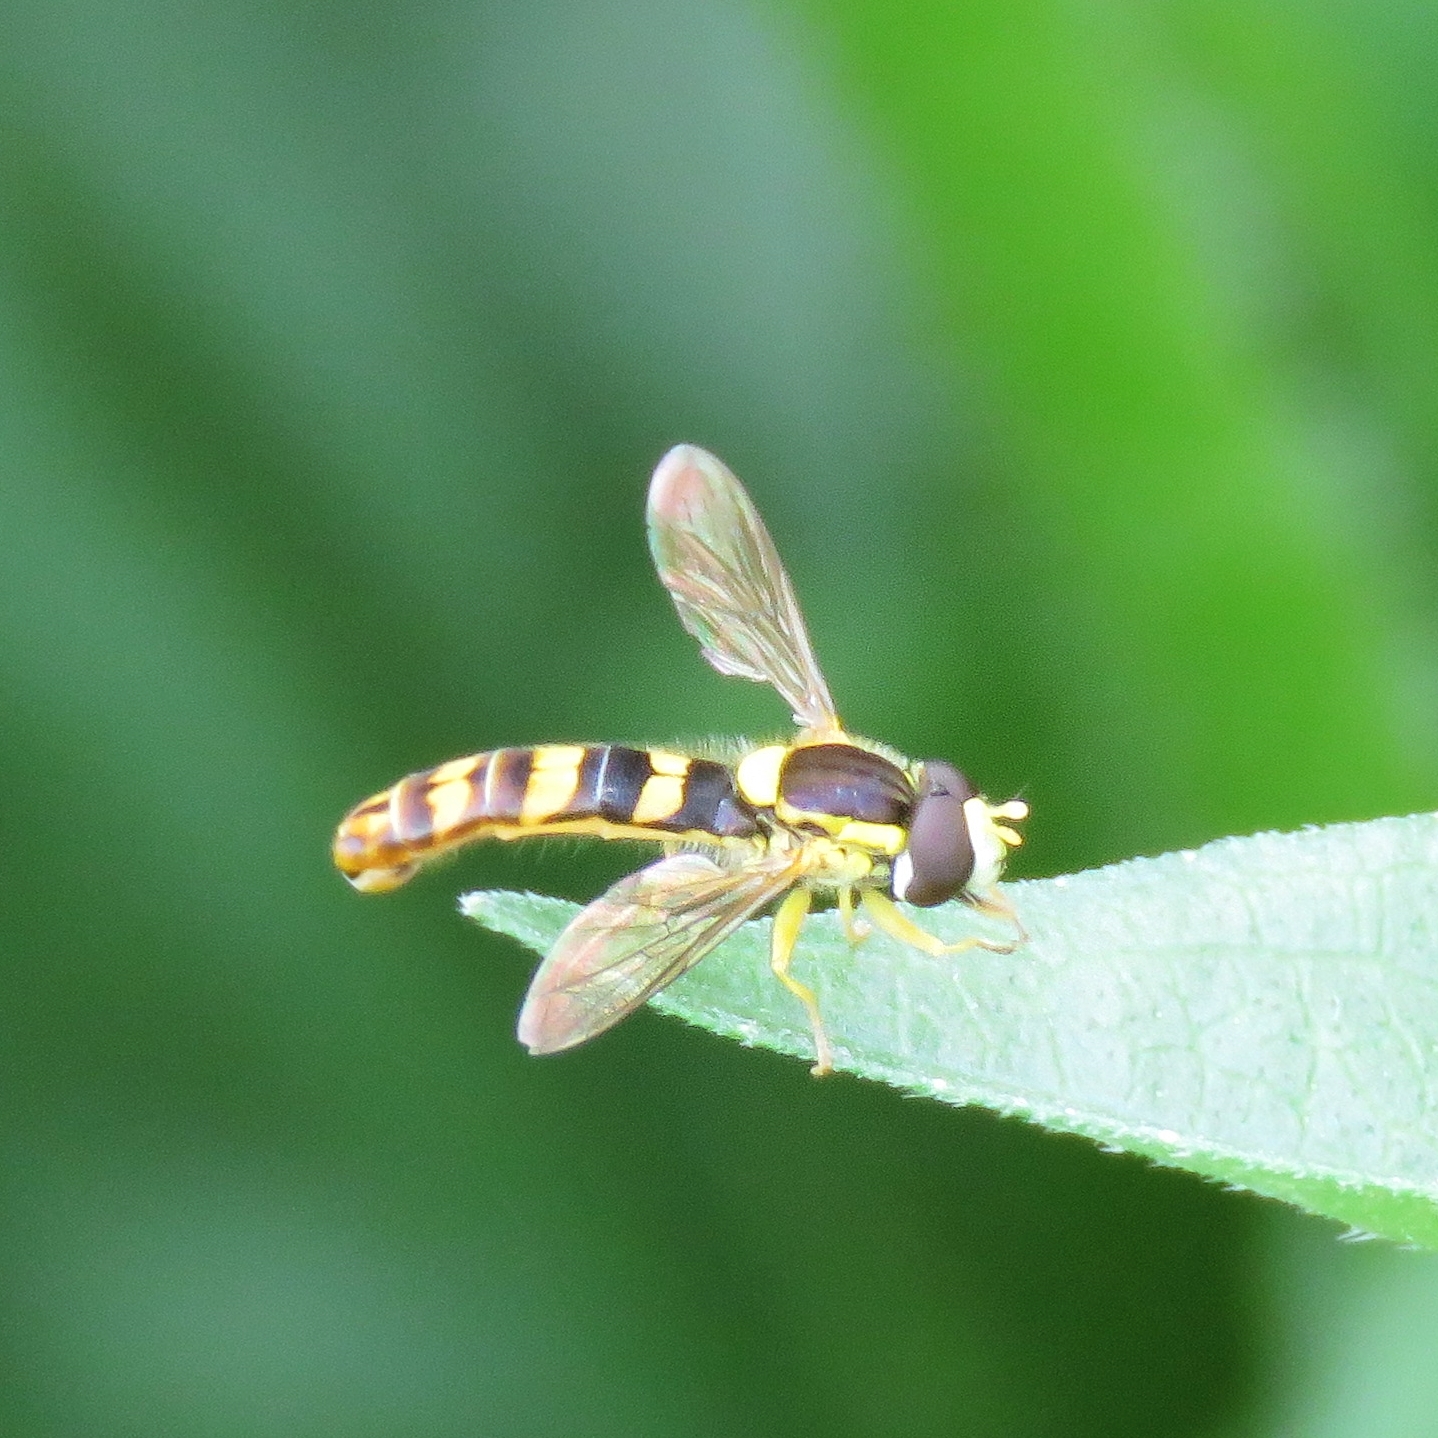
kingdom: Animalia
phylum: Arthropoda
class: Insecta
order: Diptera
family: Syrphidae
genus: Sphaerophoria
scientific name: Sphaerophoria scripta
